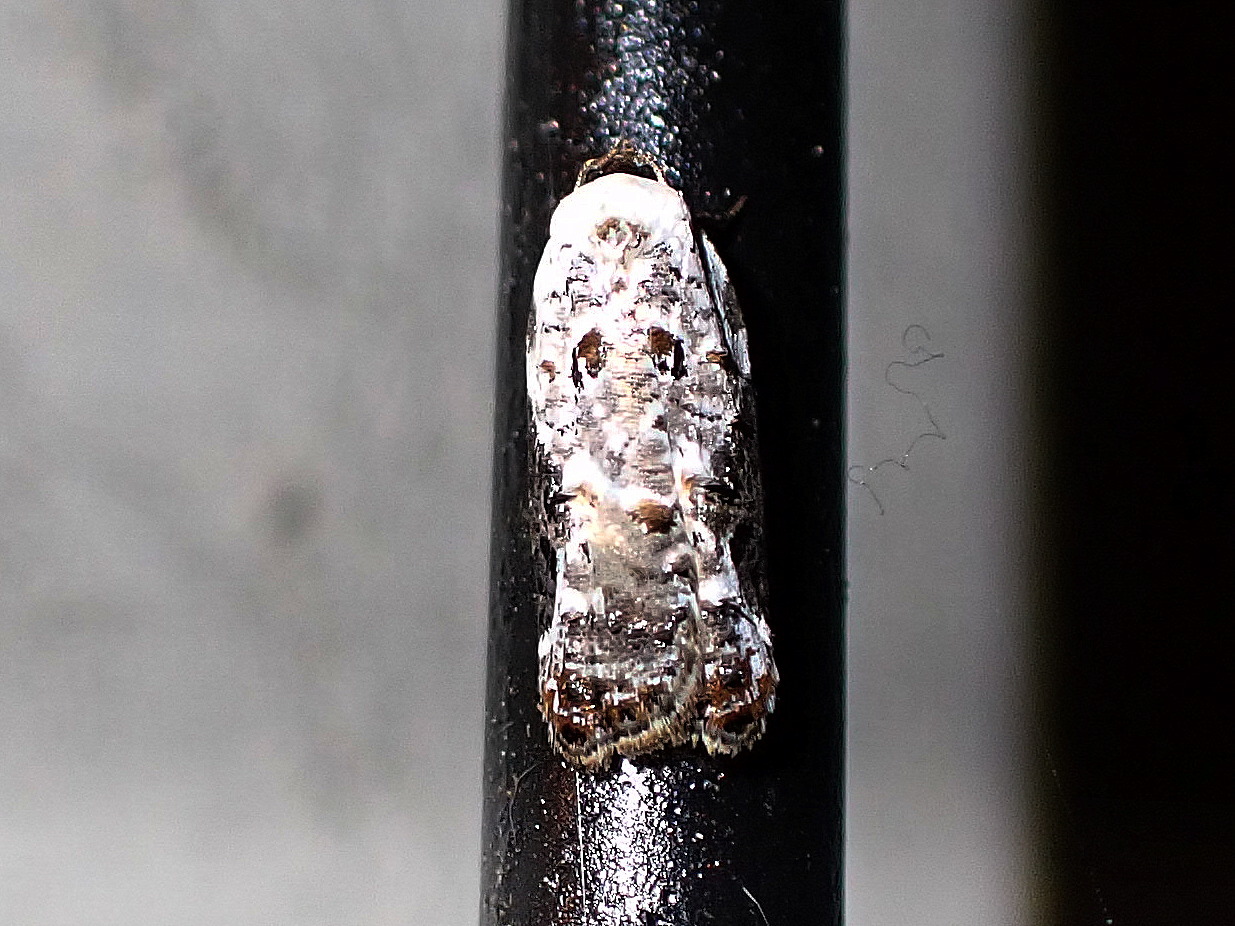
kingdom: Animalia
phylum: Arthropoda
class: Insecta
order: Lepidoptera
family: Tortricidae
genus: Acleris
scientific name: Acleris nivisellana
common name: Snowy-shouldered acleris moth
